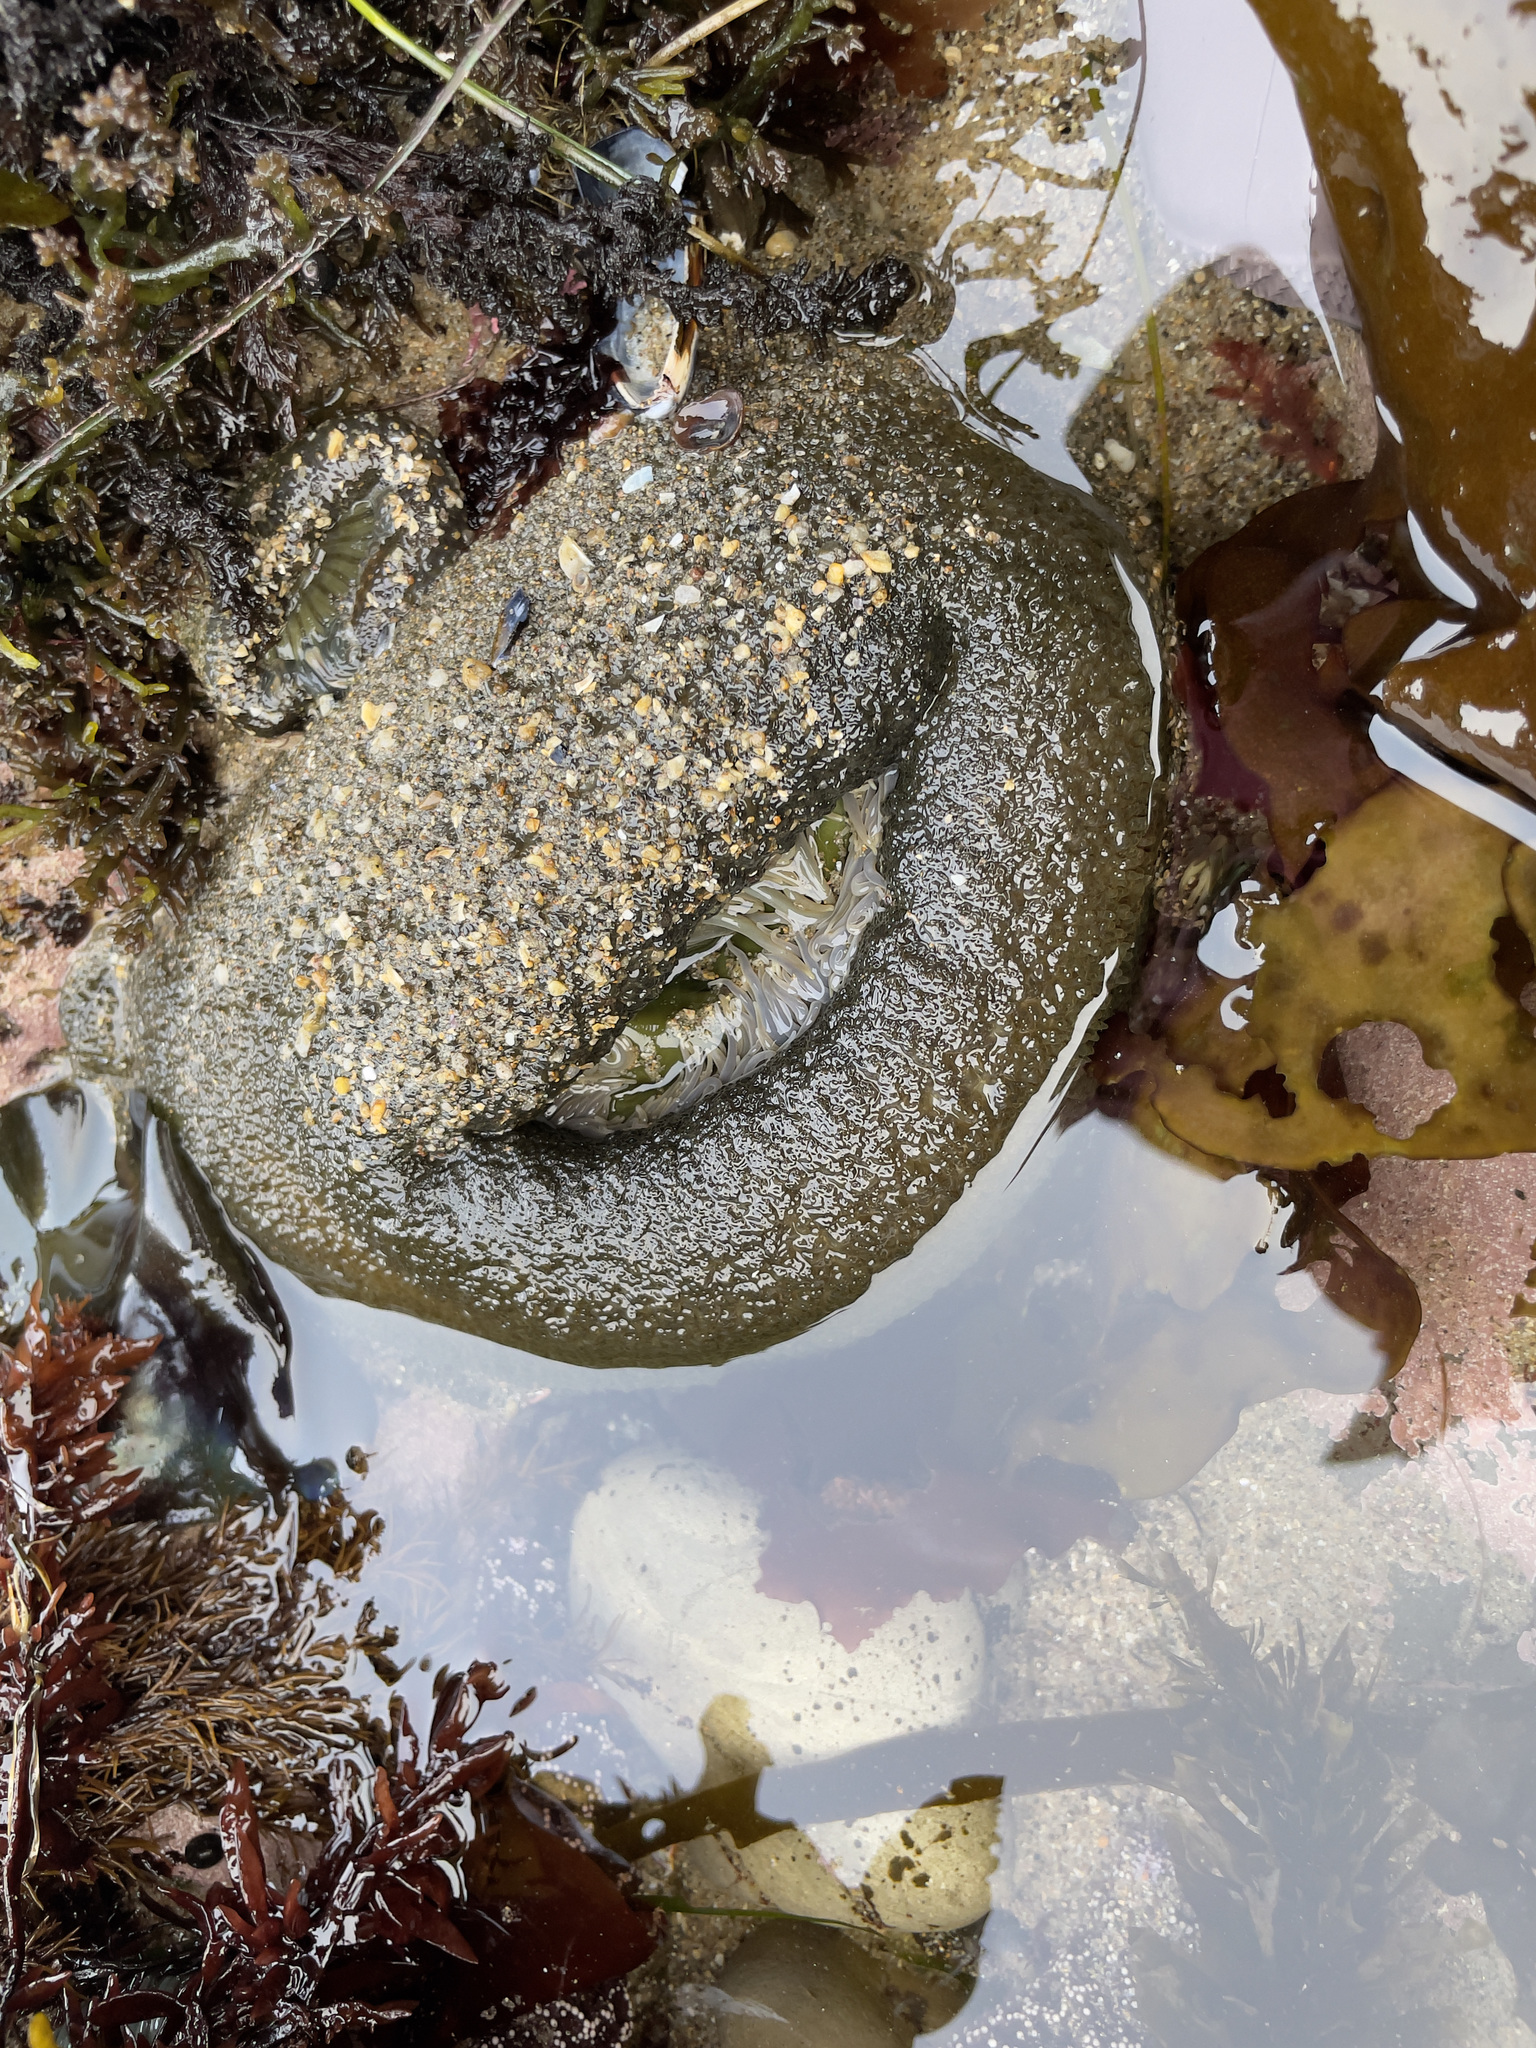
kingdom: Animalia
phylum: Cnidaria
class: Anthozoa
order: Actiniaria
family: Actiniidae
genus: Anthopleura
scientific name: Anthopleura xanthogrammica
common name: Giant green anemone
